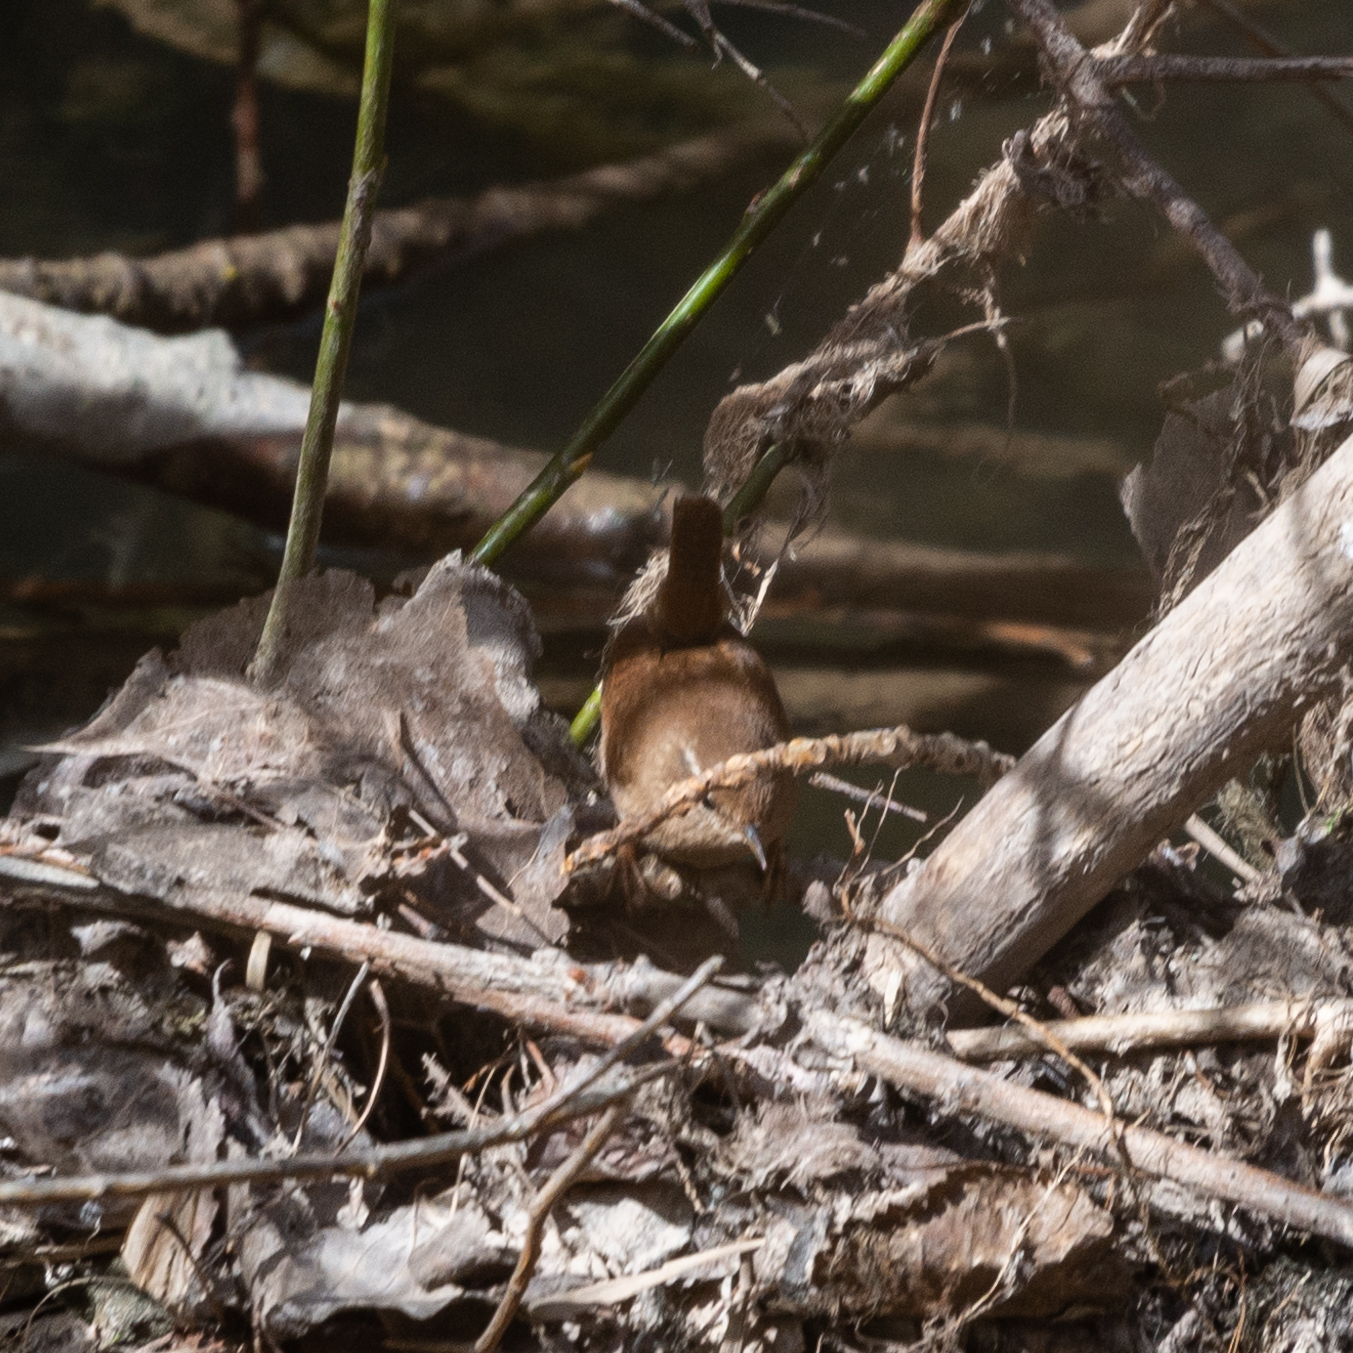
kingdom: Animalia
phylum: Chordata
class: Aves
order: Passeriformes
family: Troglodytidae
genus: Troglodytes
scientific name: Troglodytes troglodytes
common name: Eurasian wren
